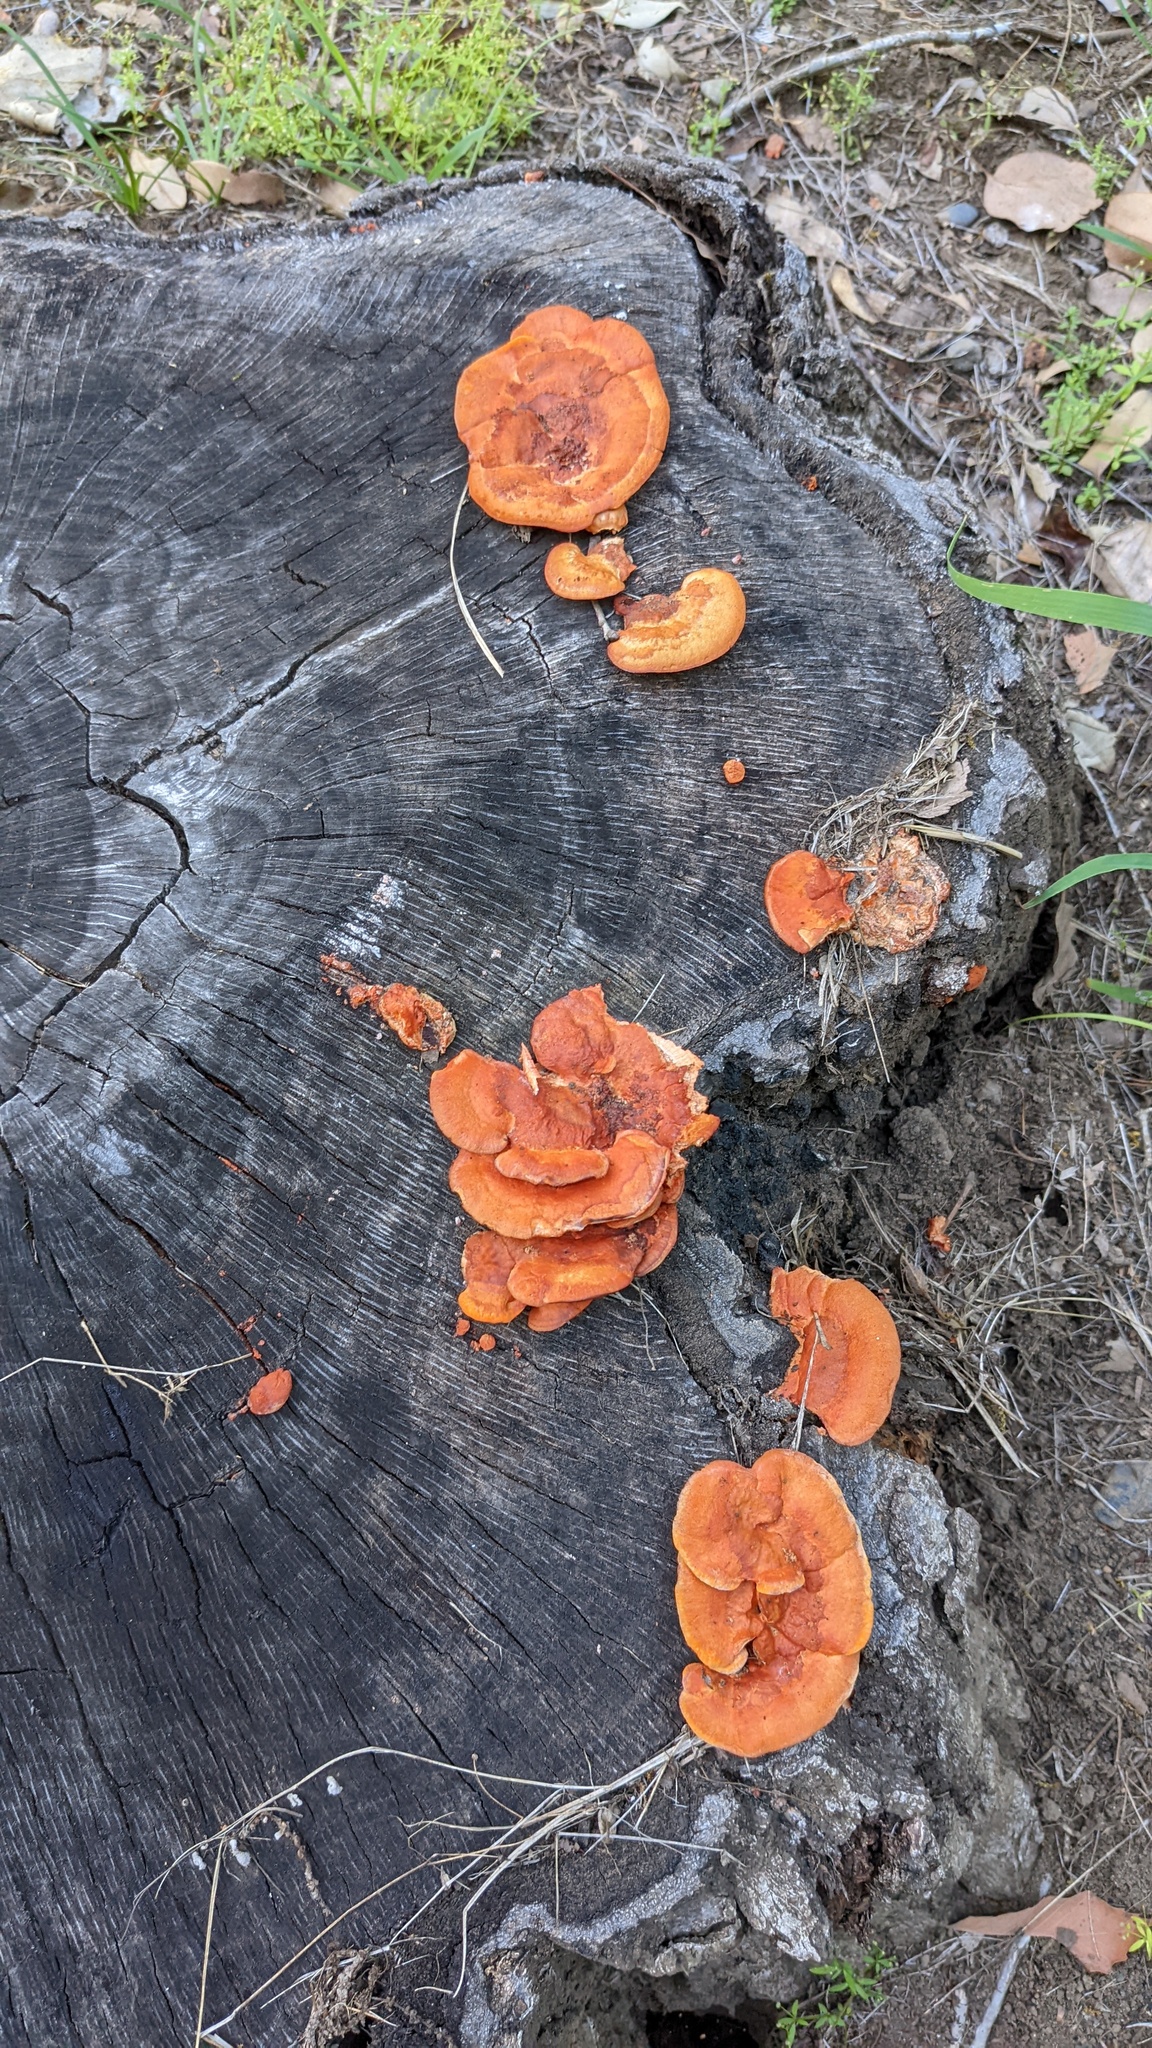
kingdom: Fungi
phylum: Basidiomycota
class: Agaricomycetes
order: Polyporales
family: Polyporaceae
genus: Trametes
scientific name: Trametes coccinea
